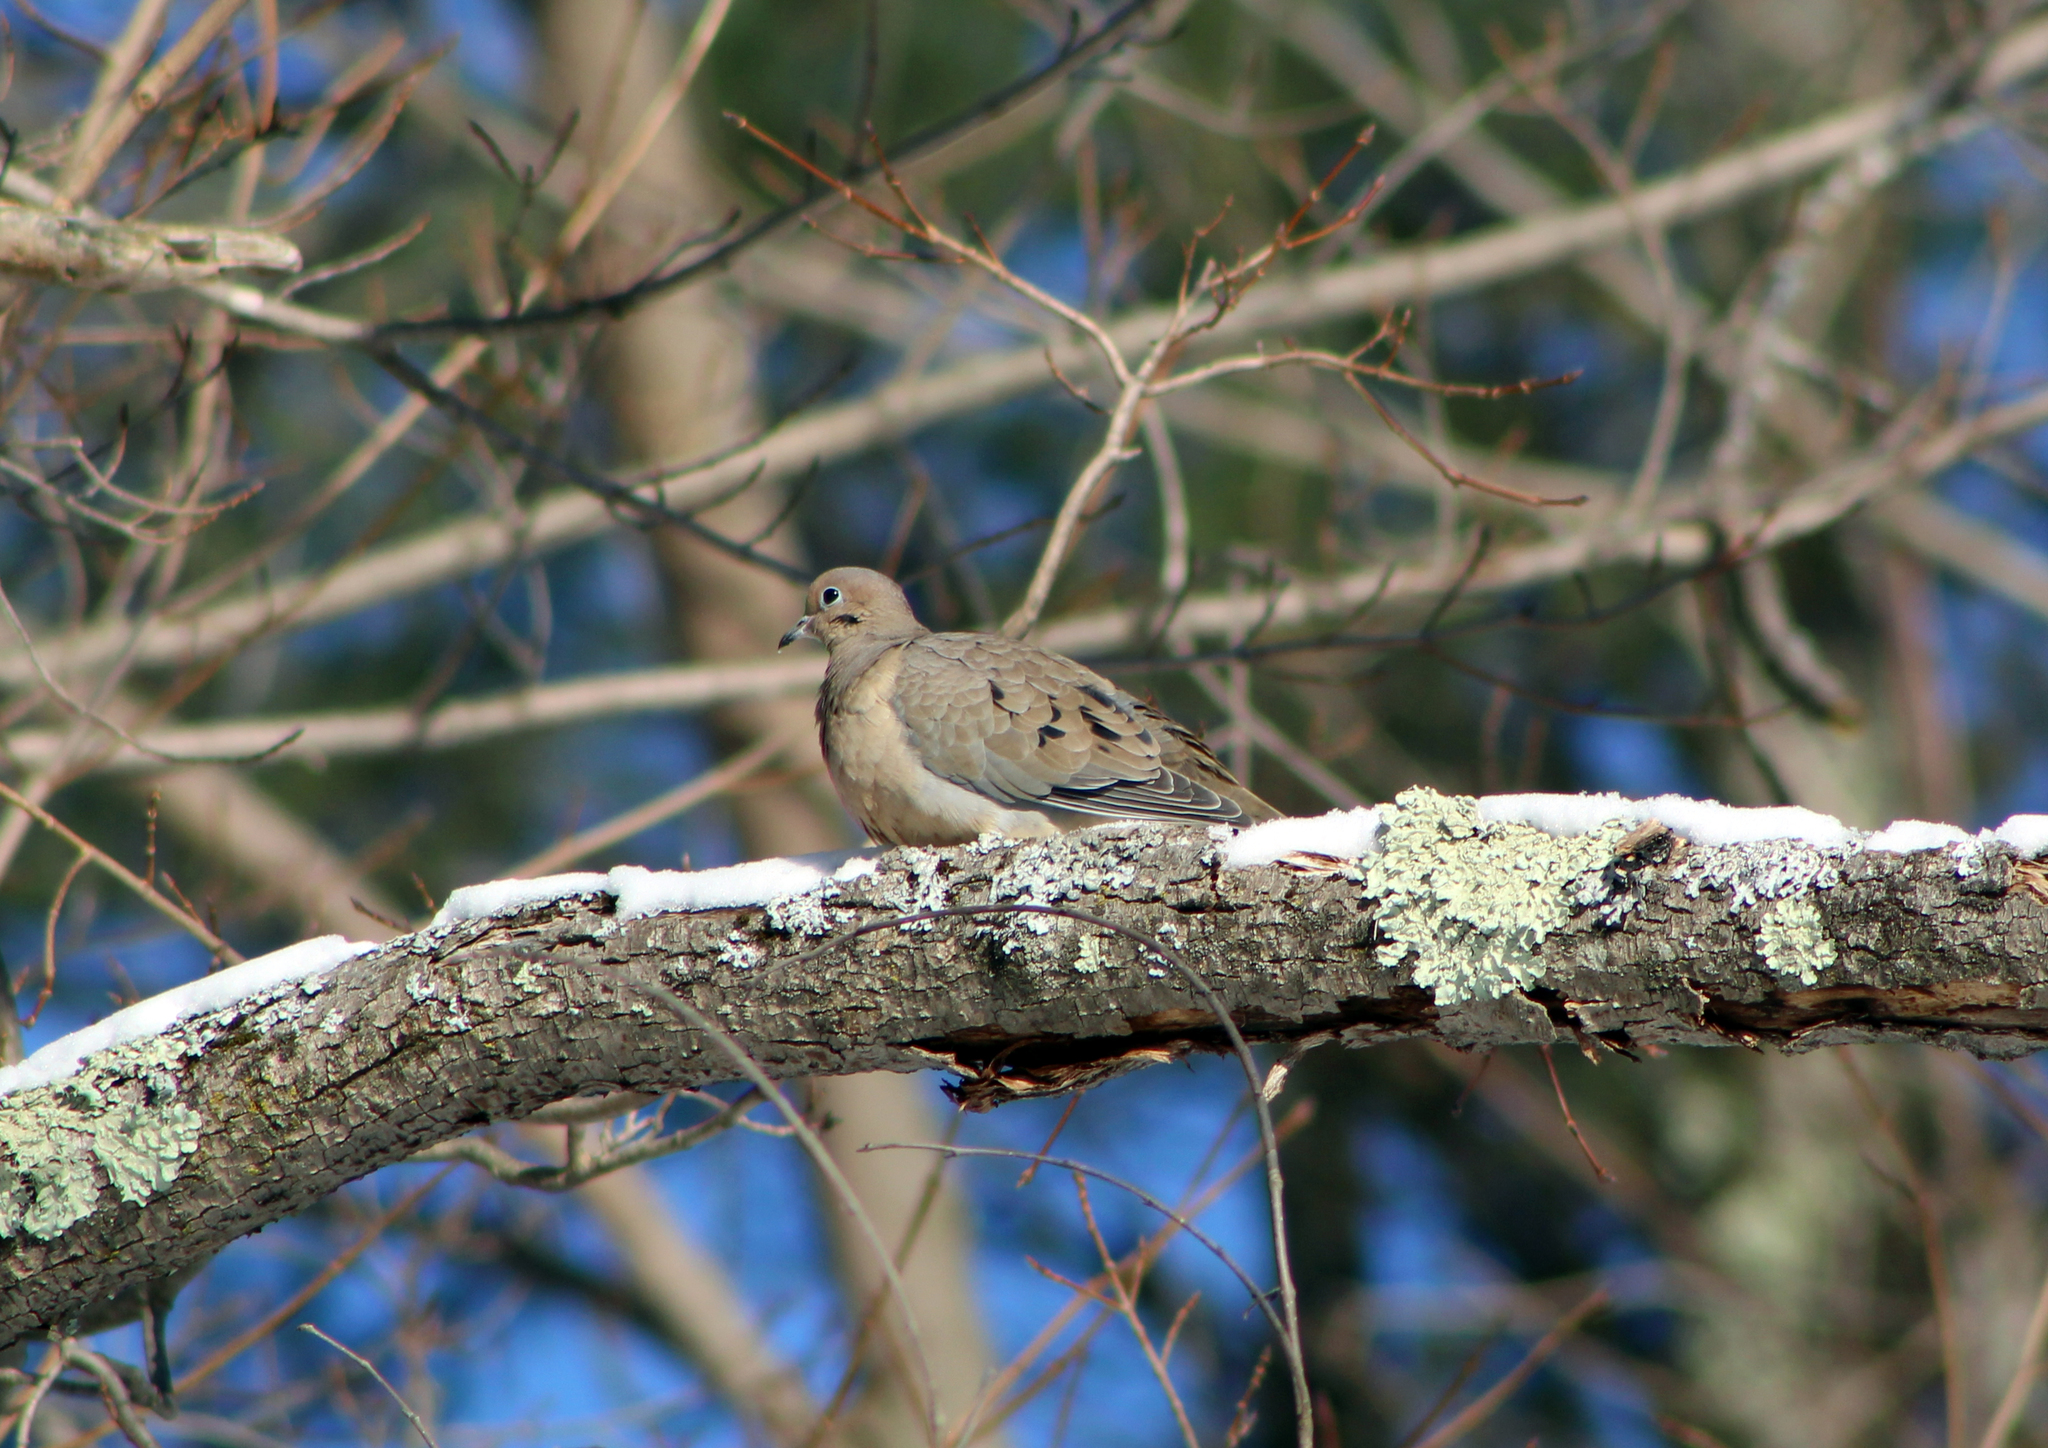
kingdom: Animalia
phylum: Chordata
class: Aves
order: Columbiformes
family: Columbidae
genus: Zenaida
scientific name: Zenaida macroura
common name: Mourning dove
